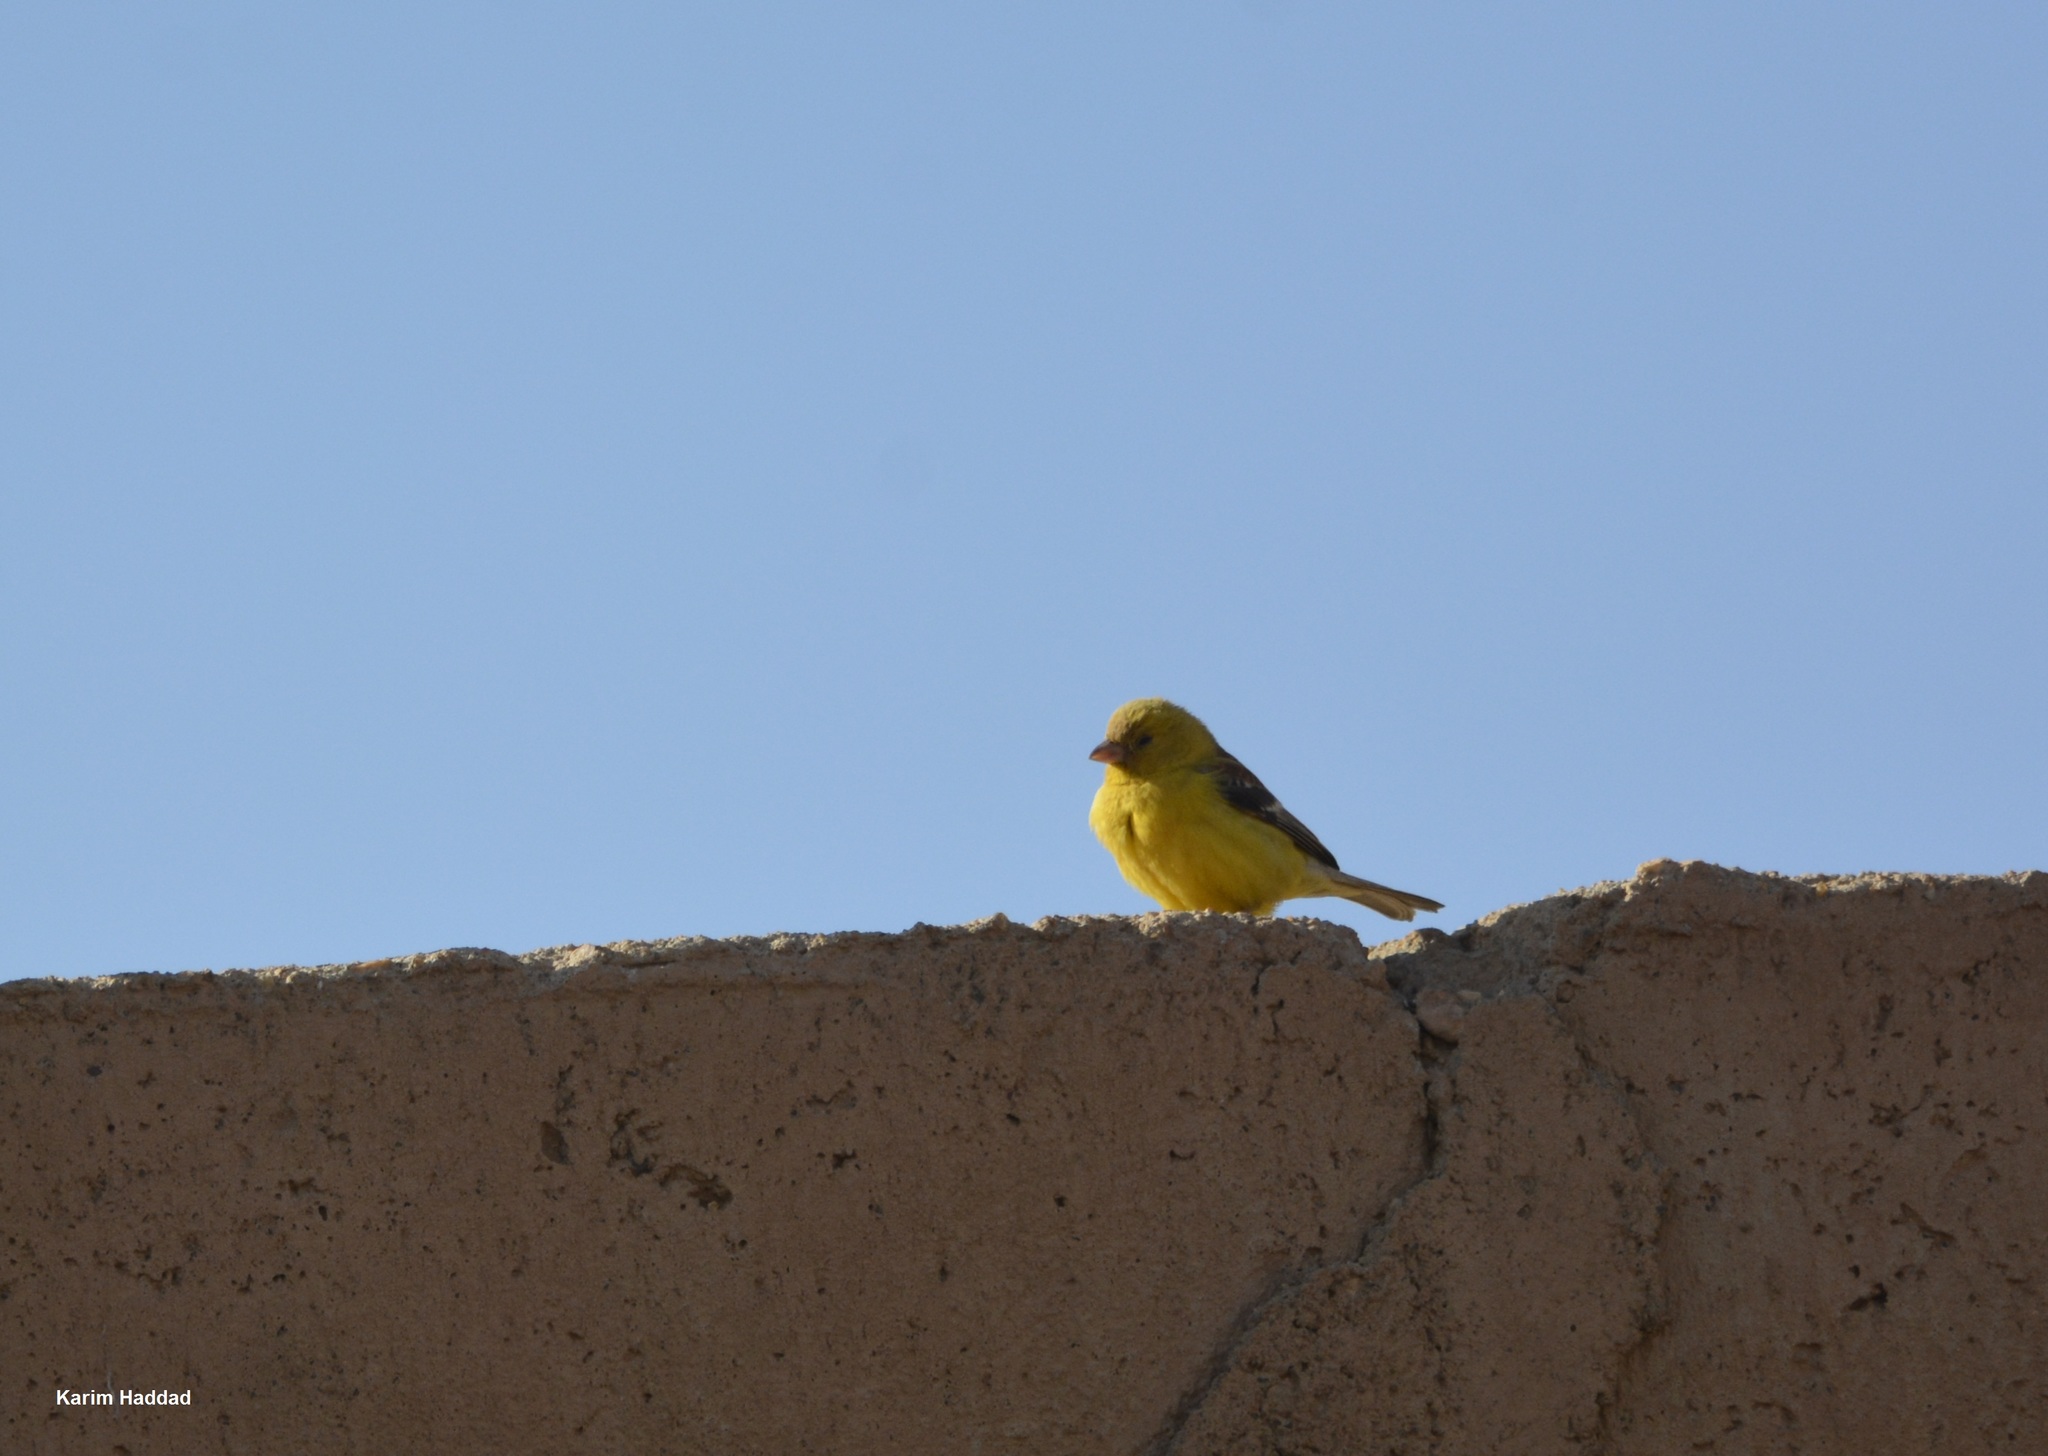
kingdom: Animalia
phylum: Chordata
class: Aves
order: Passeriformes
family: Passeridae
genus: Passer
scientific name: Passer luteus
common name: Sudan golden sparrow
